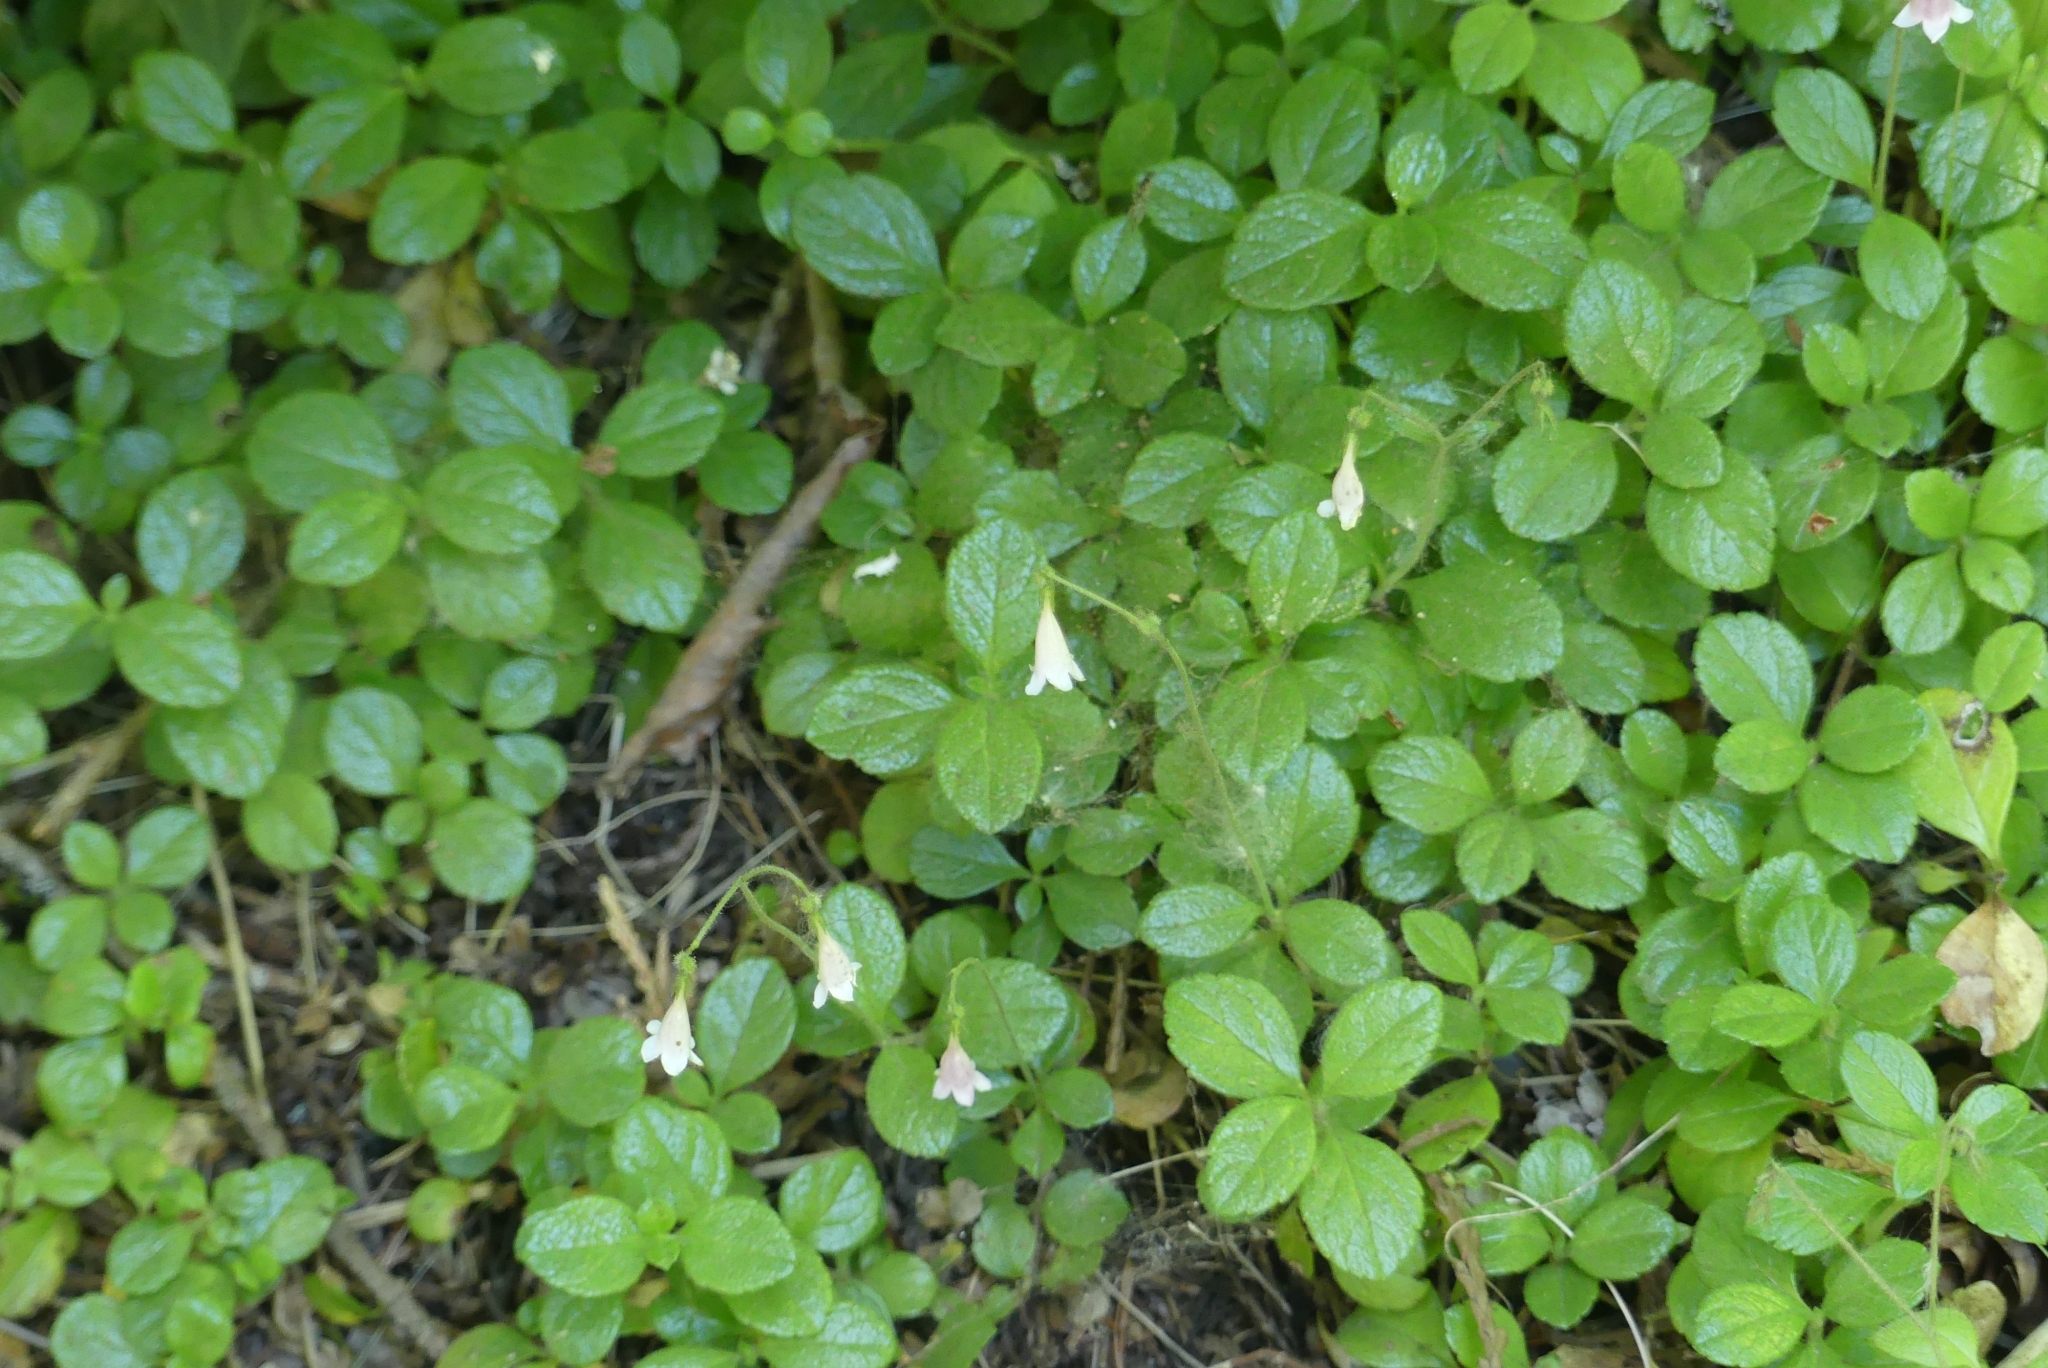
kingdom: Plantae
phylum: Tracheophyta
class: Magnoliopsida
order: Dipsacales
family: Caprifoliaceae
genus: Linnaea
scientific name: Linnaea borealis
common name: Twinflower
